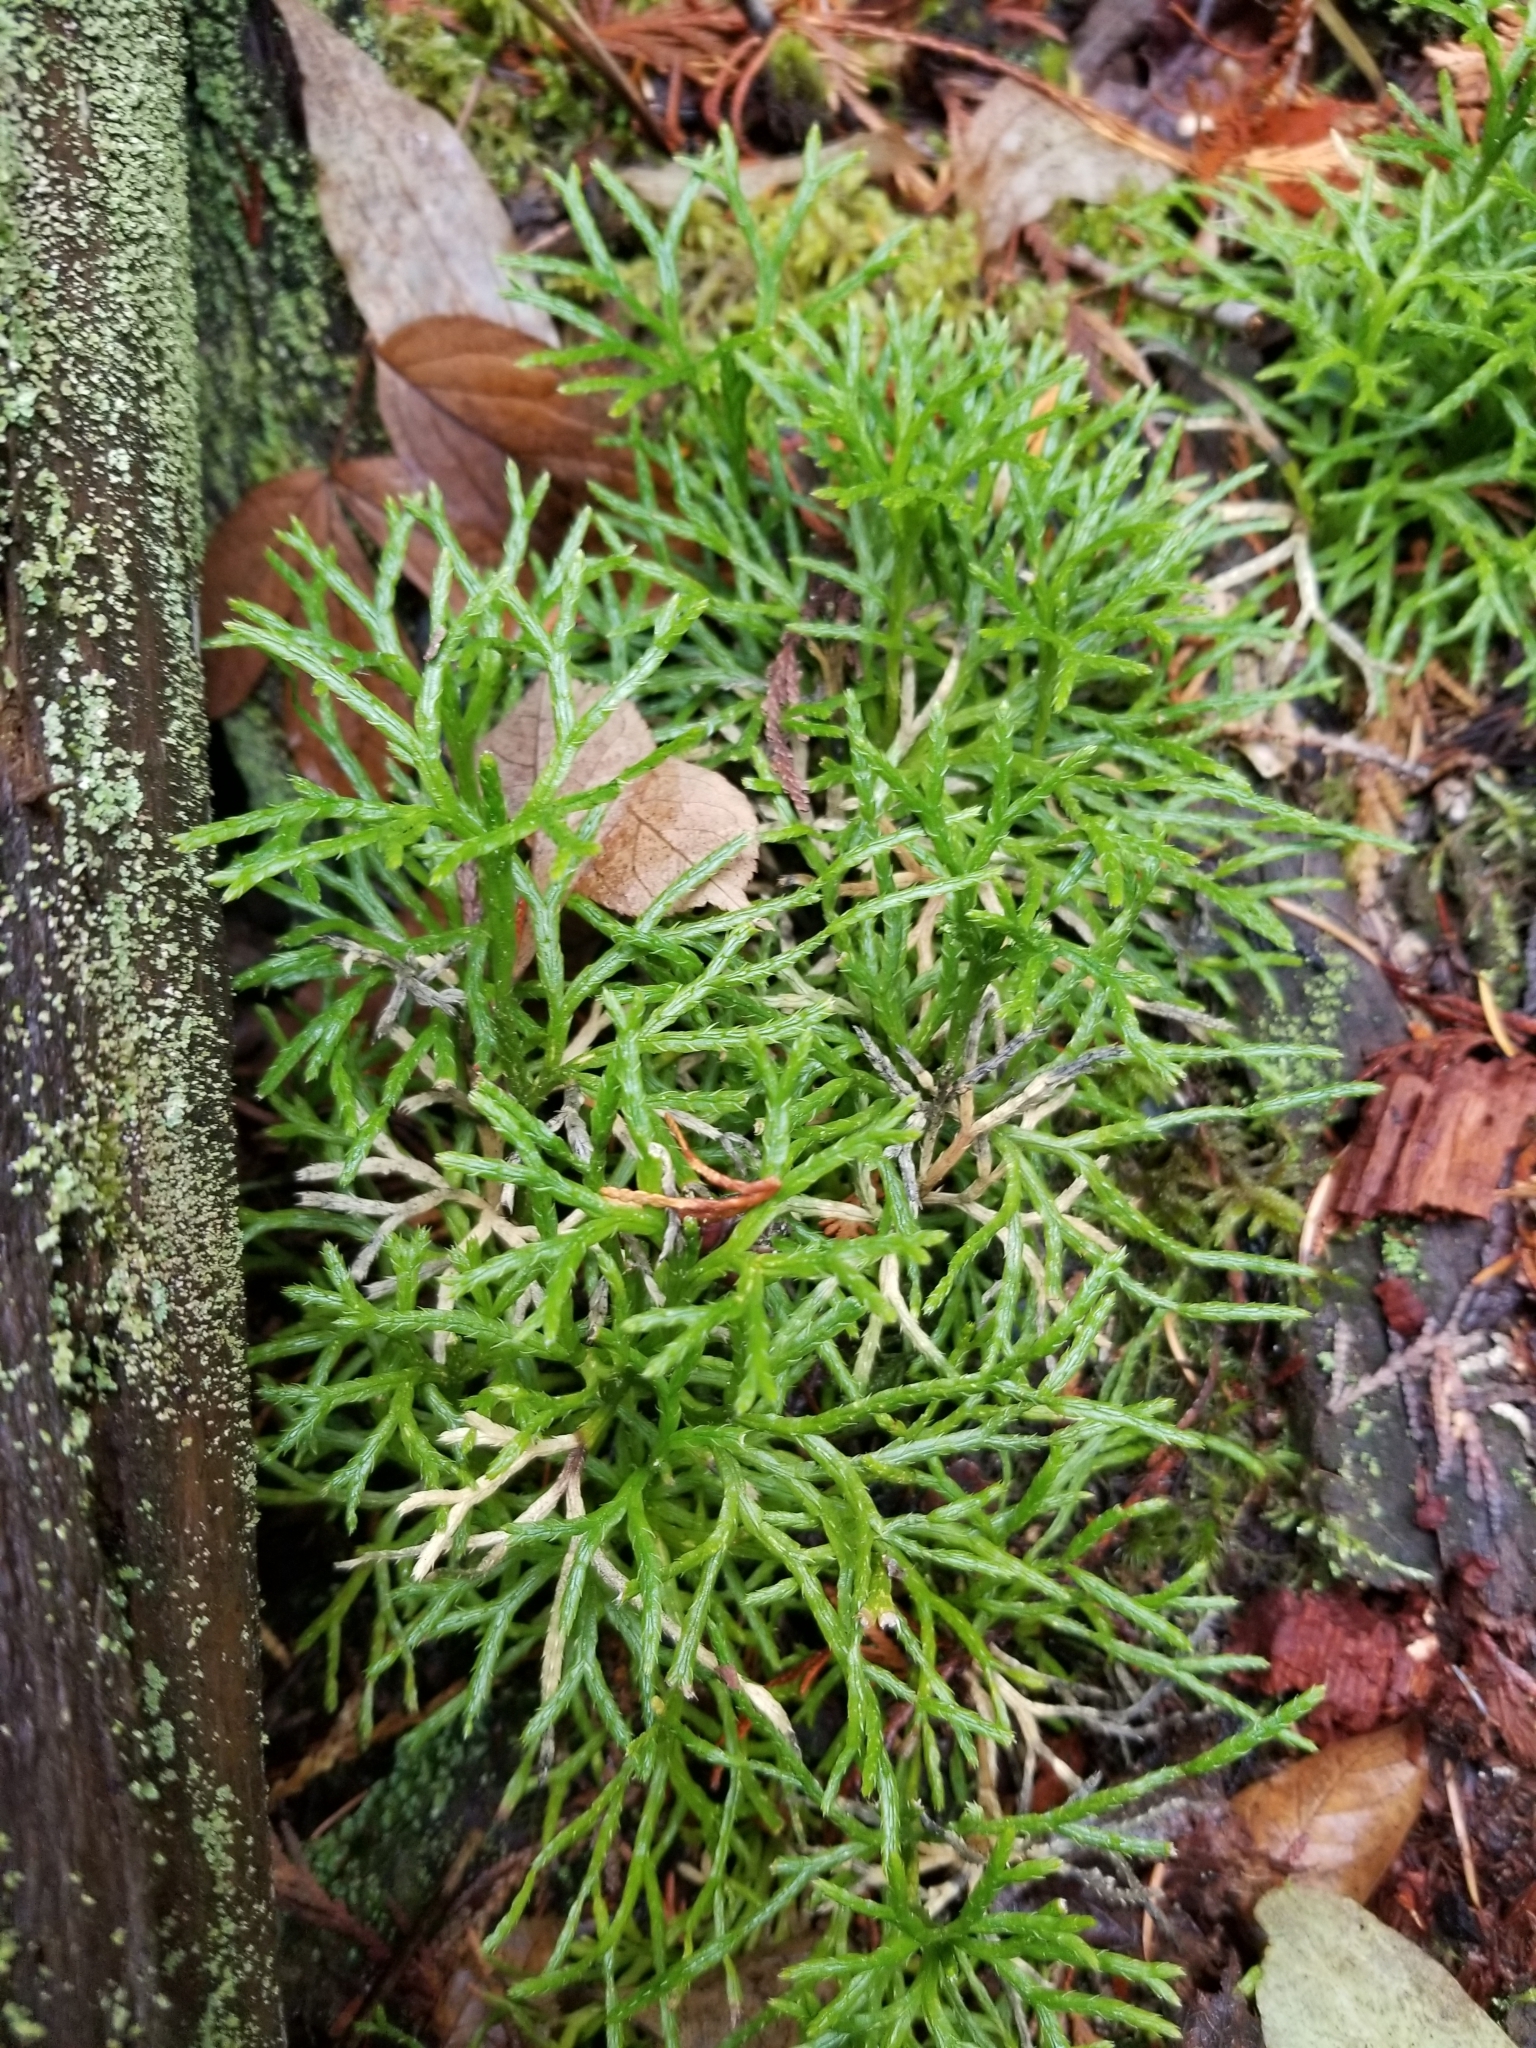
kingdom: Plantae
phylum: Tracheophyta
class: Lycopodiopsida
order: Lycopodiales
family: Lycopodiaceae
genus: Diphasiastrum
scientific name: Diphasiastrum complanatum
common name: Northern running-pine
